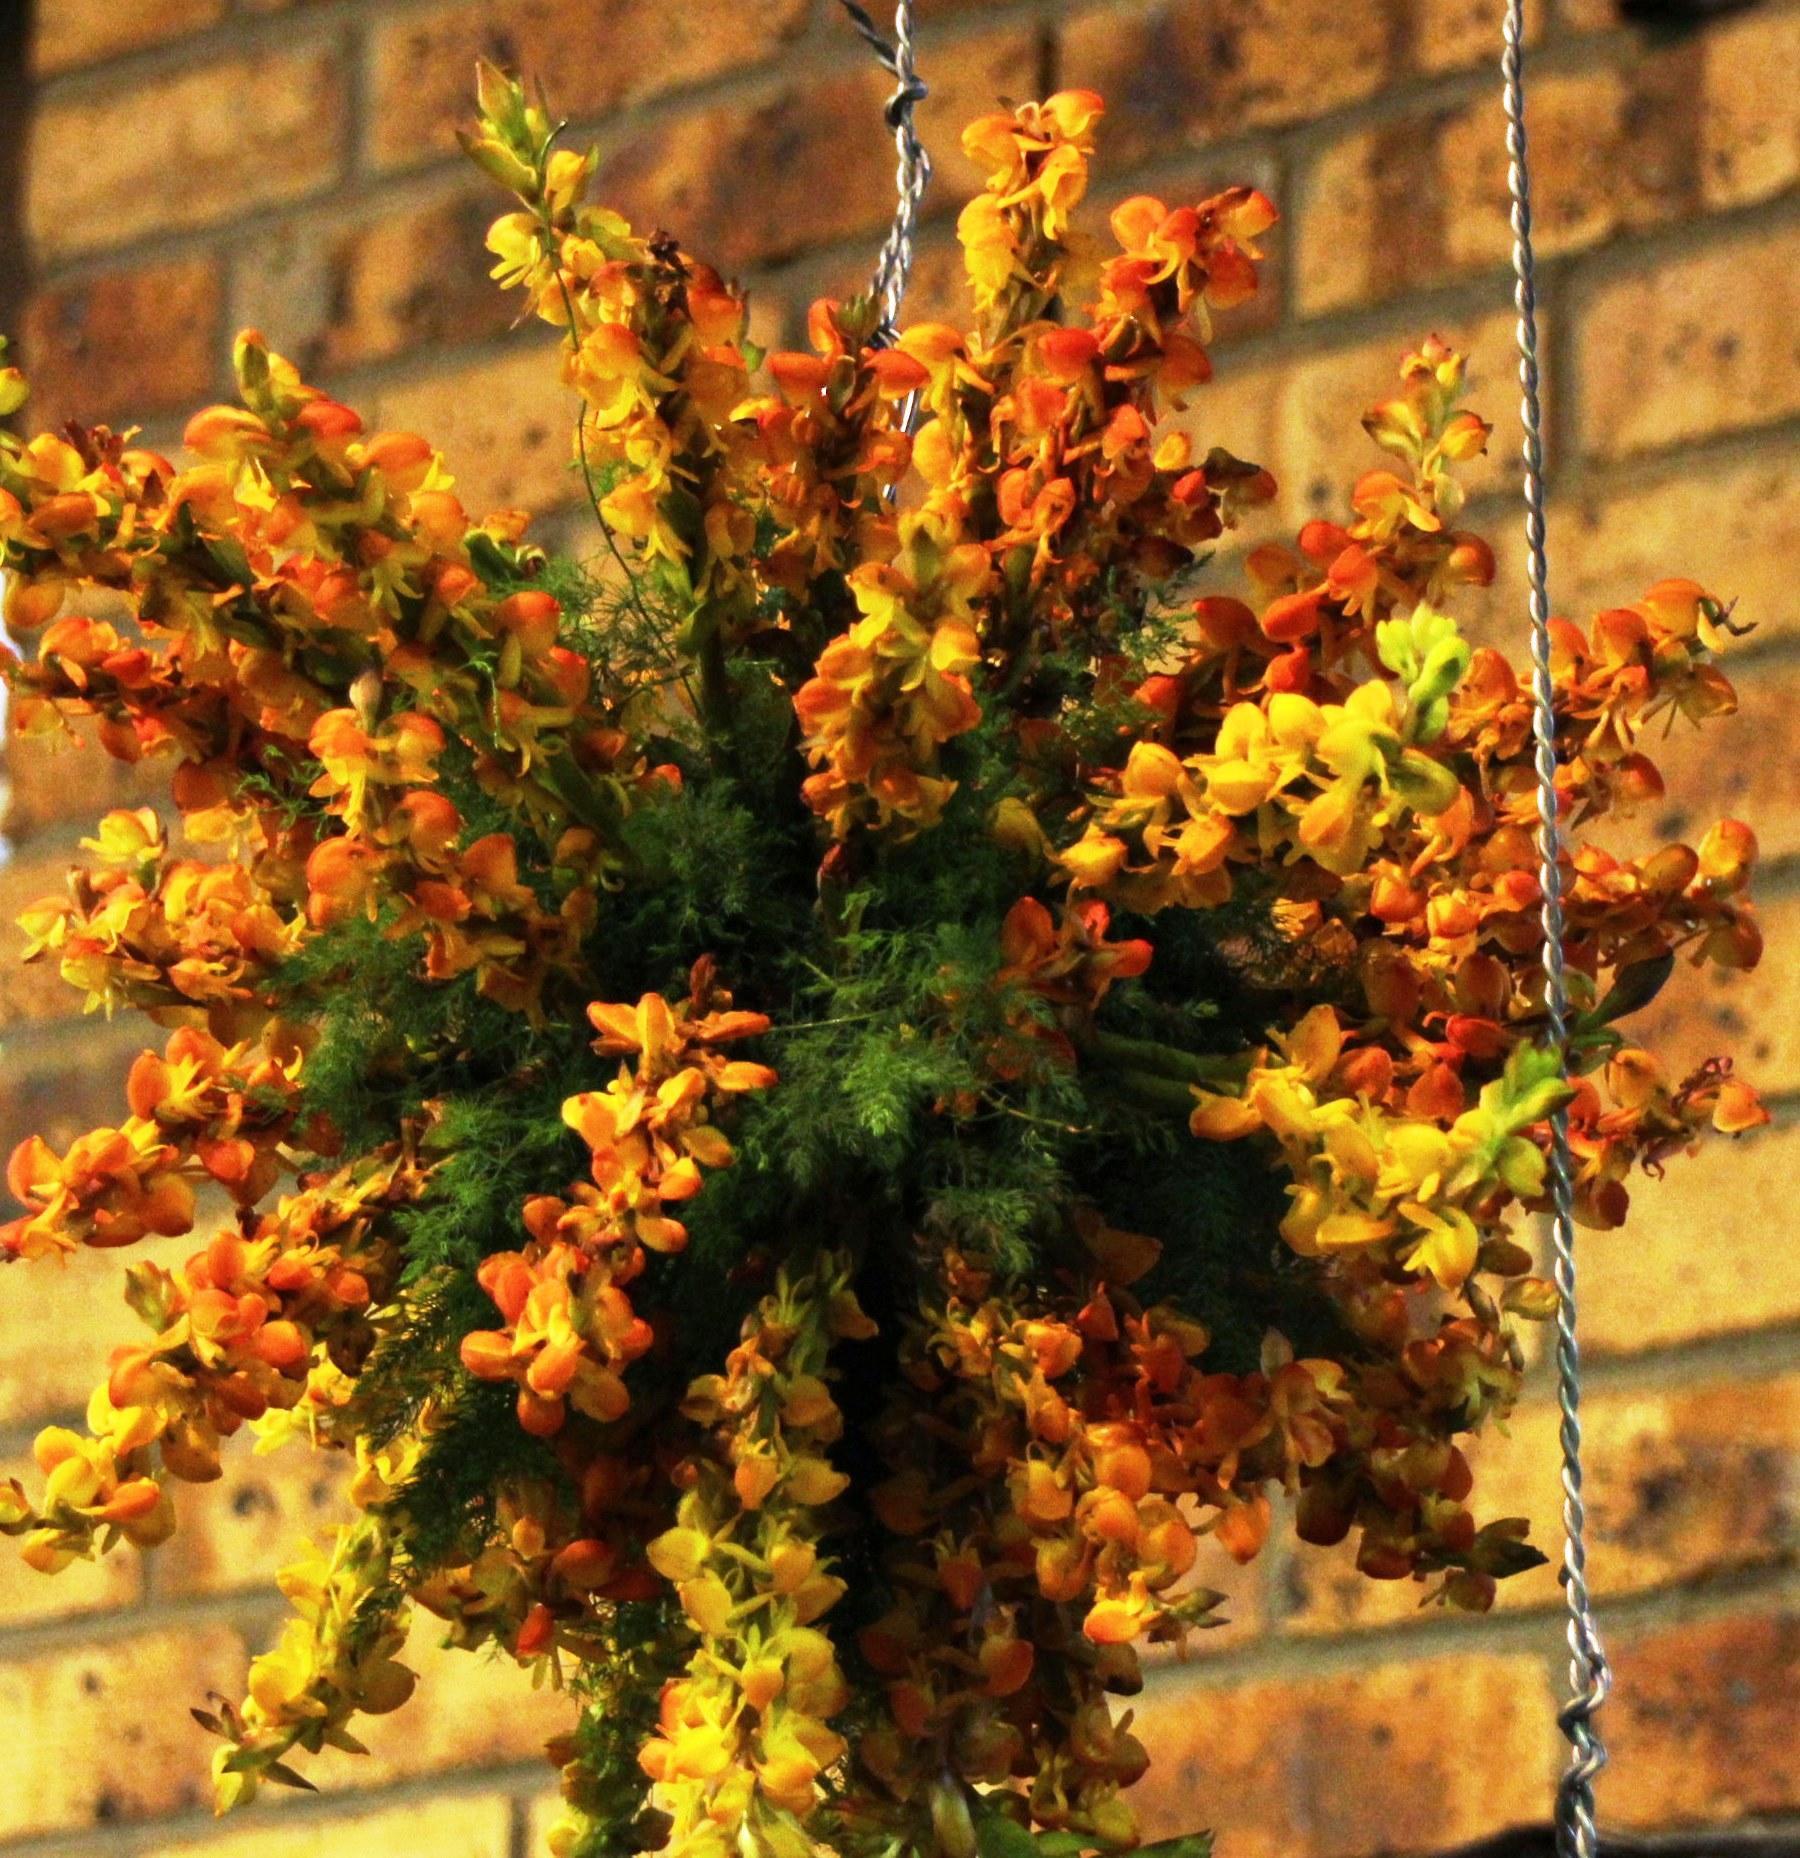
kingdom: Plantae
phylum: Tracheophyta
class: Liliopsida
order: Asparagales
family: Orchidaceae
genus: Satyrium
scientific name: Satyrium coriifolium
